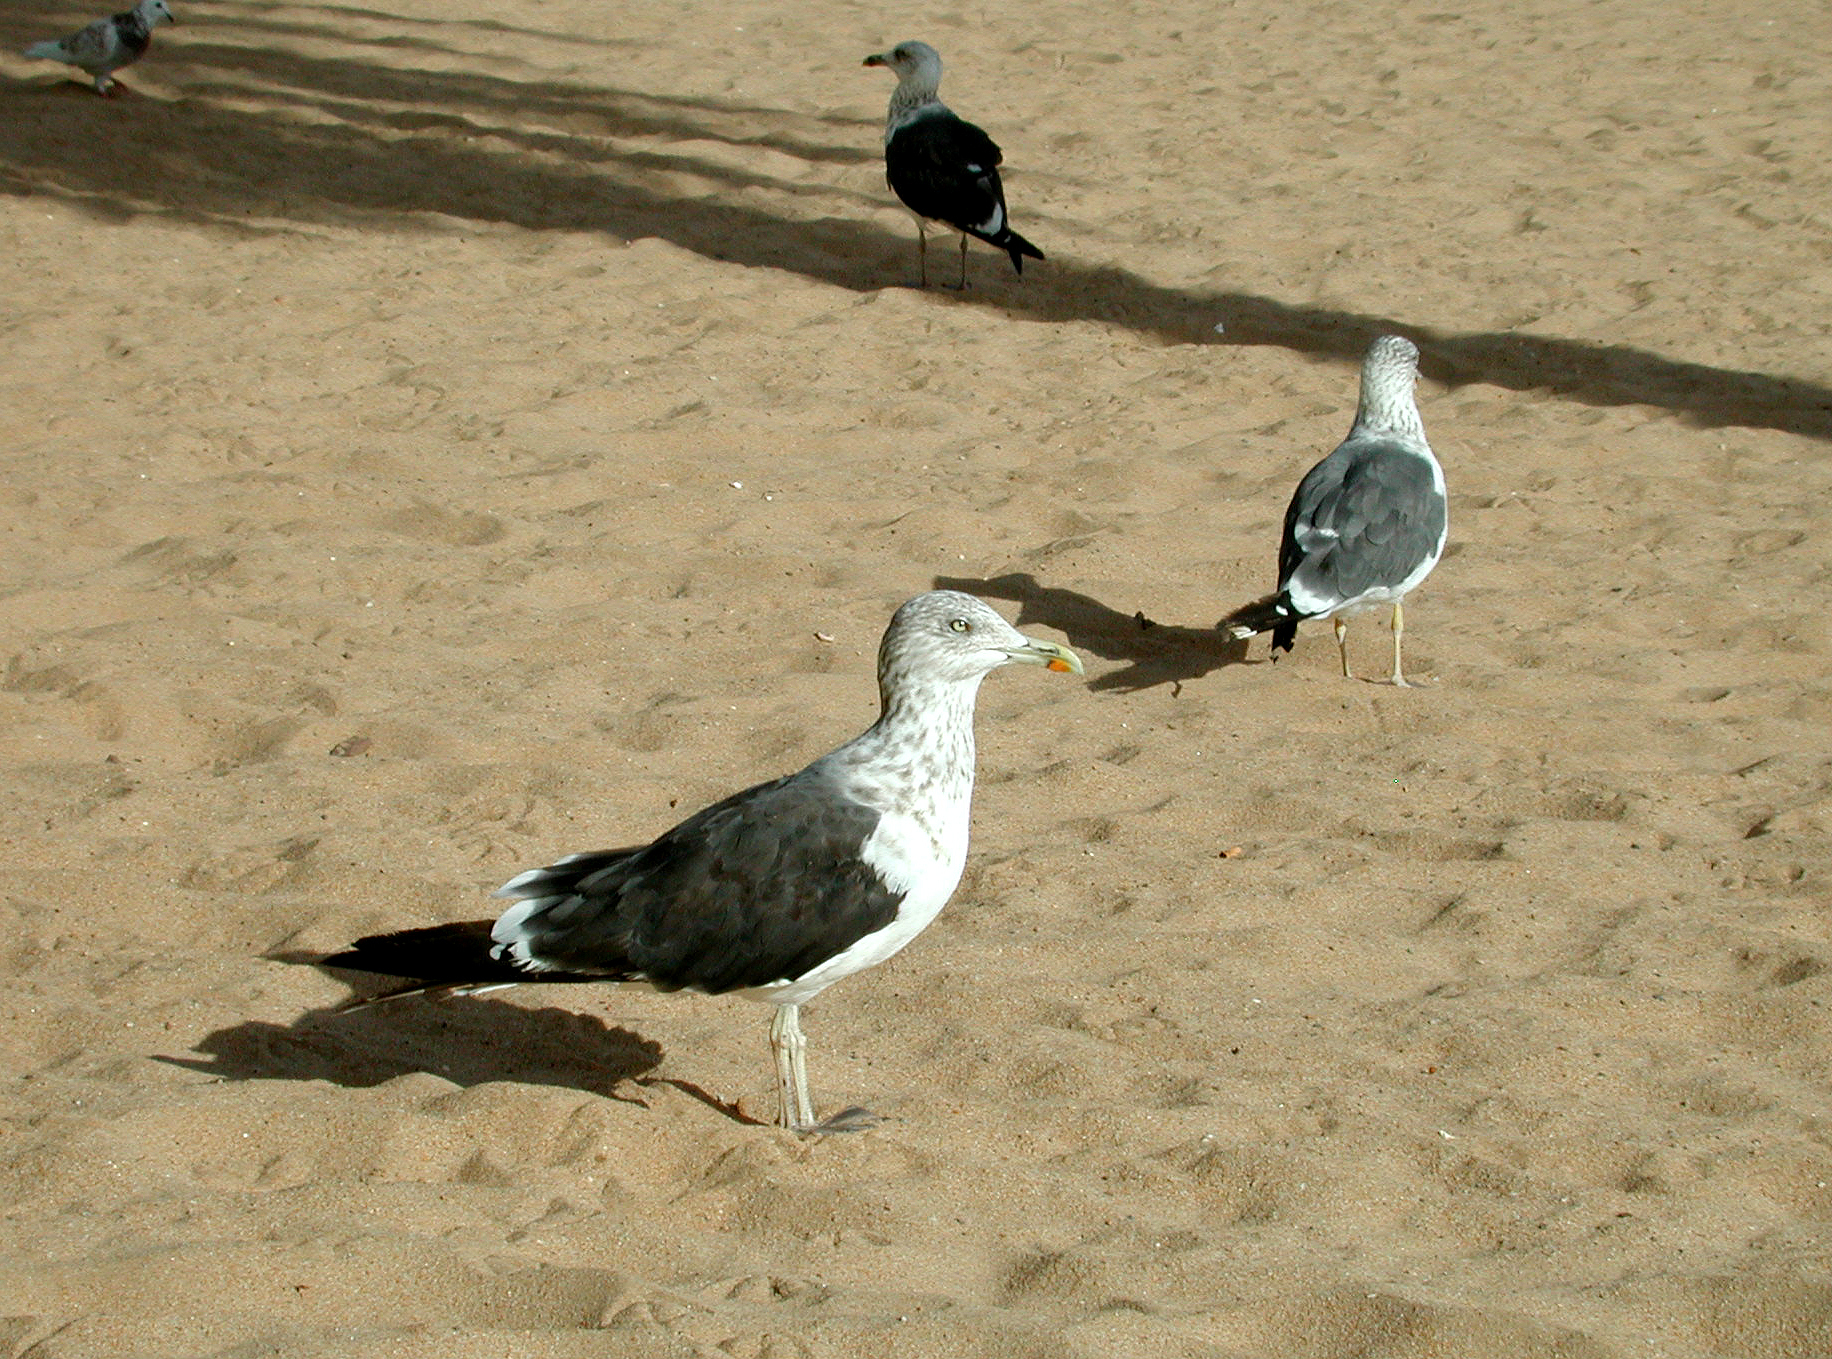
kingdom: Animalia
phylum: Chordata
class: Aves
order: Charadriiformes
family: Laridae
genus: Larus
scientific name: Larus fuscus
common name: Lesser black-backed gull
